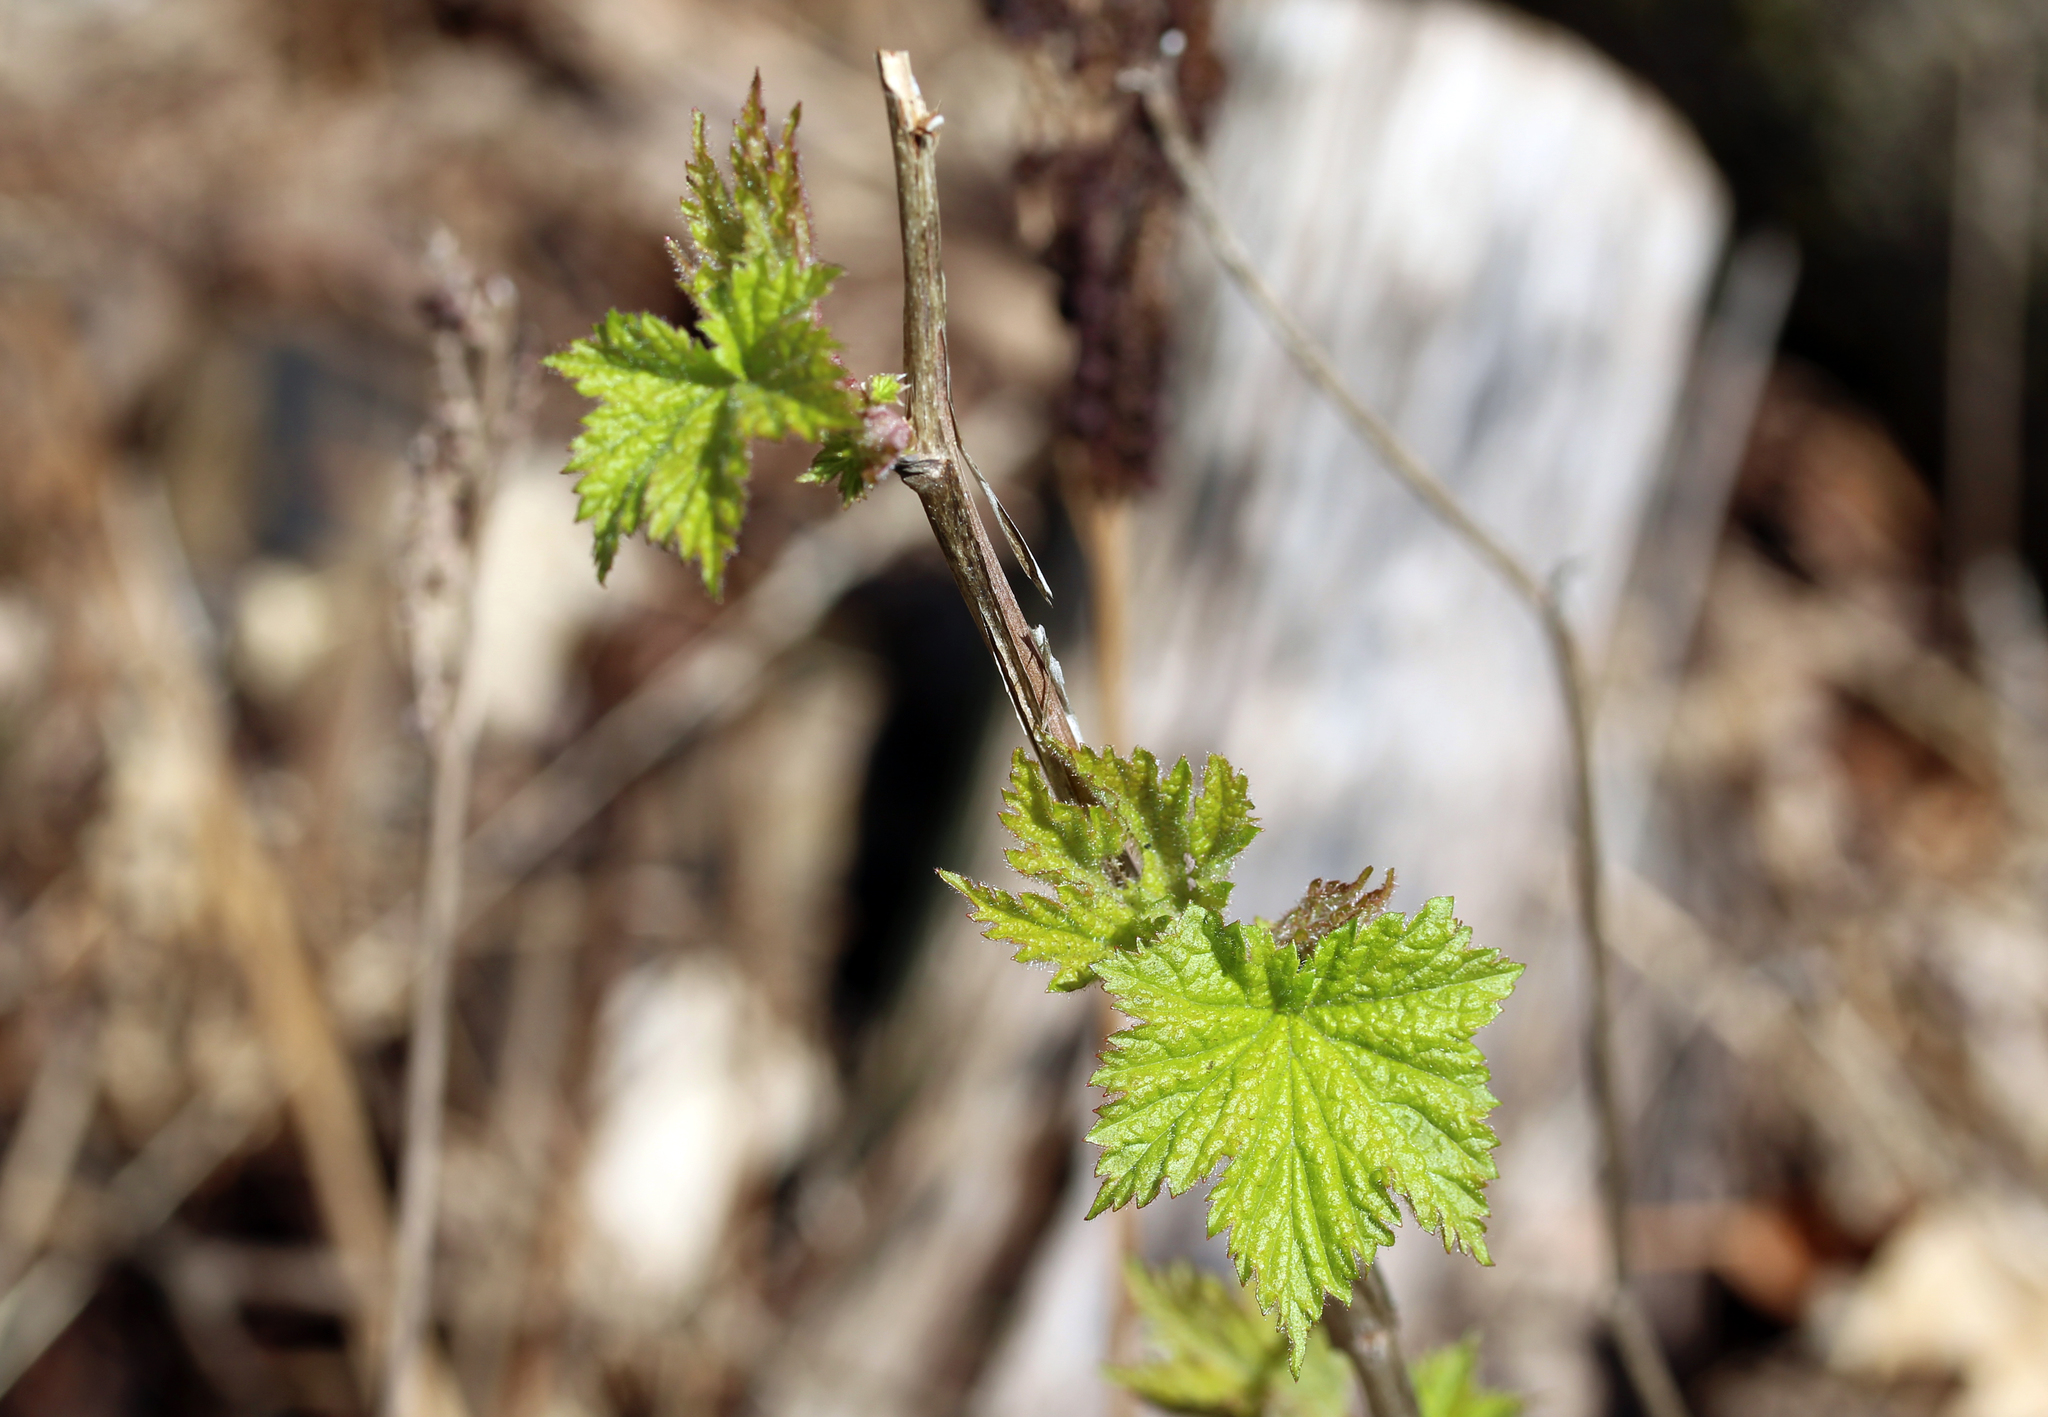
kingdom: Plantae
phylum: Tracheophyta
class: Magnoliopsida
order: Rosales
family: Rosaceae
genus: Rubus
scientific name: Rubus odoratus
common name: Purple-flowered raspberry
